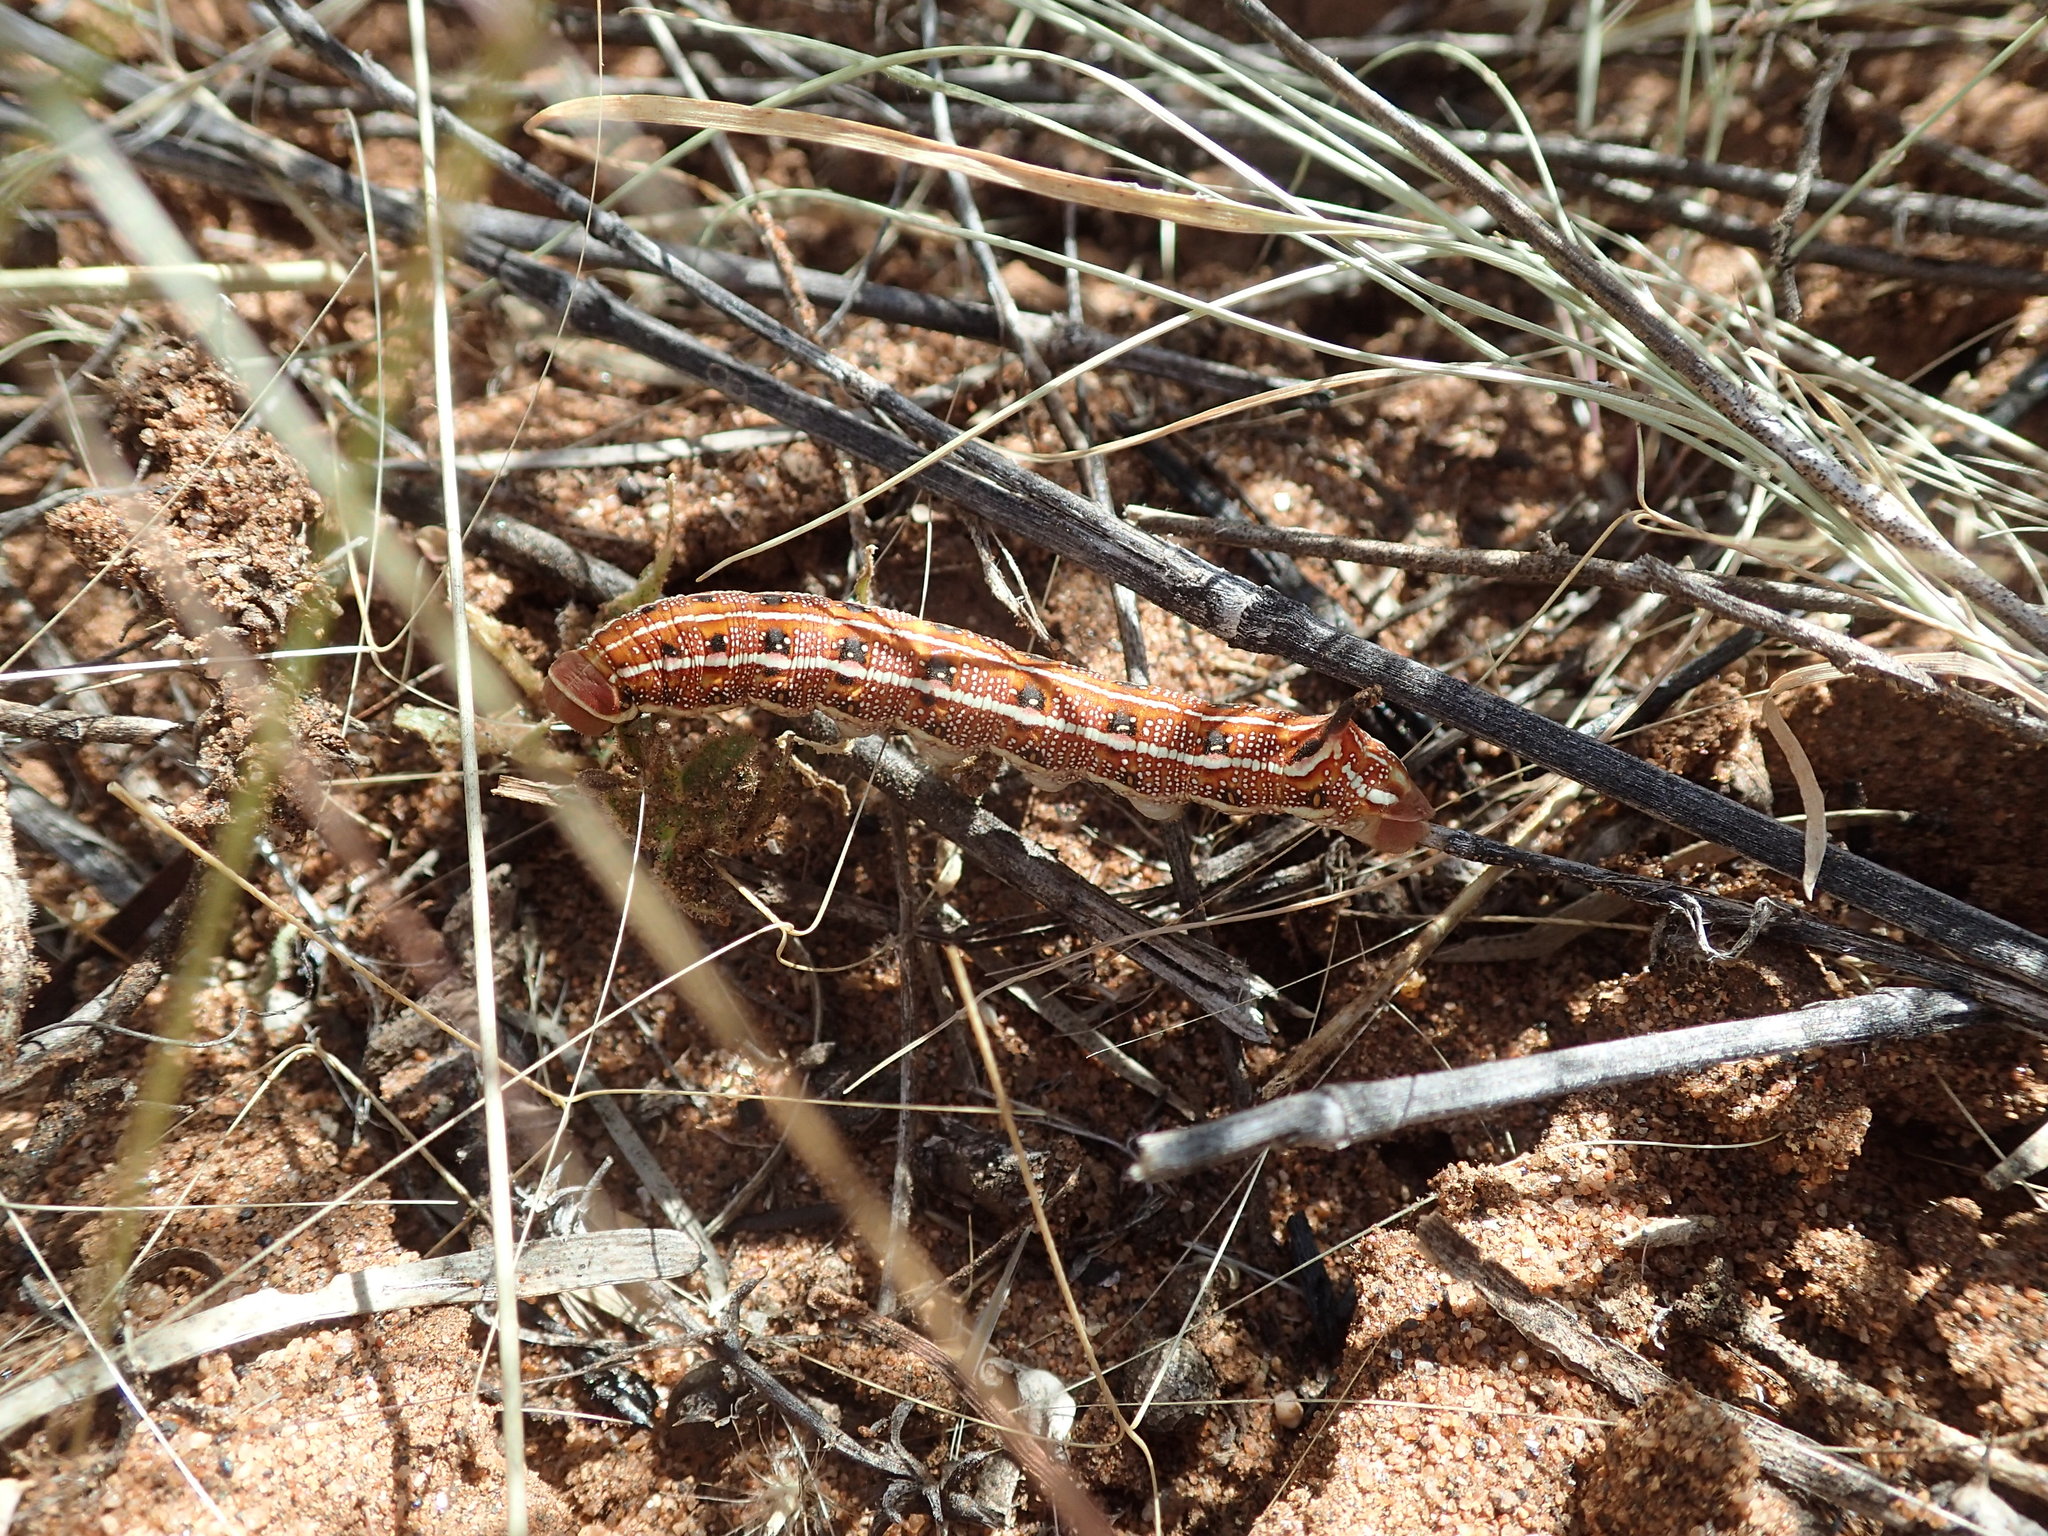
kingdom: Animalia
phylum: Arthropoda
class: Insecta
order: Lepidoptera
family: Sphingidae
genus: Hyles
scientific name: Hyles livornicoides
